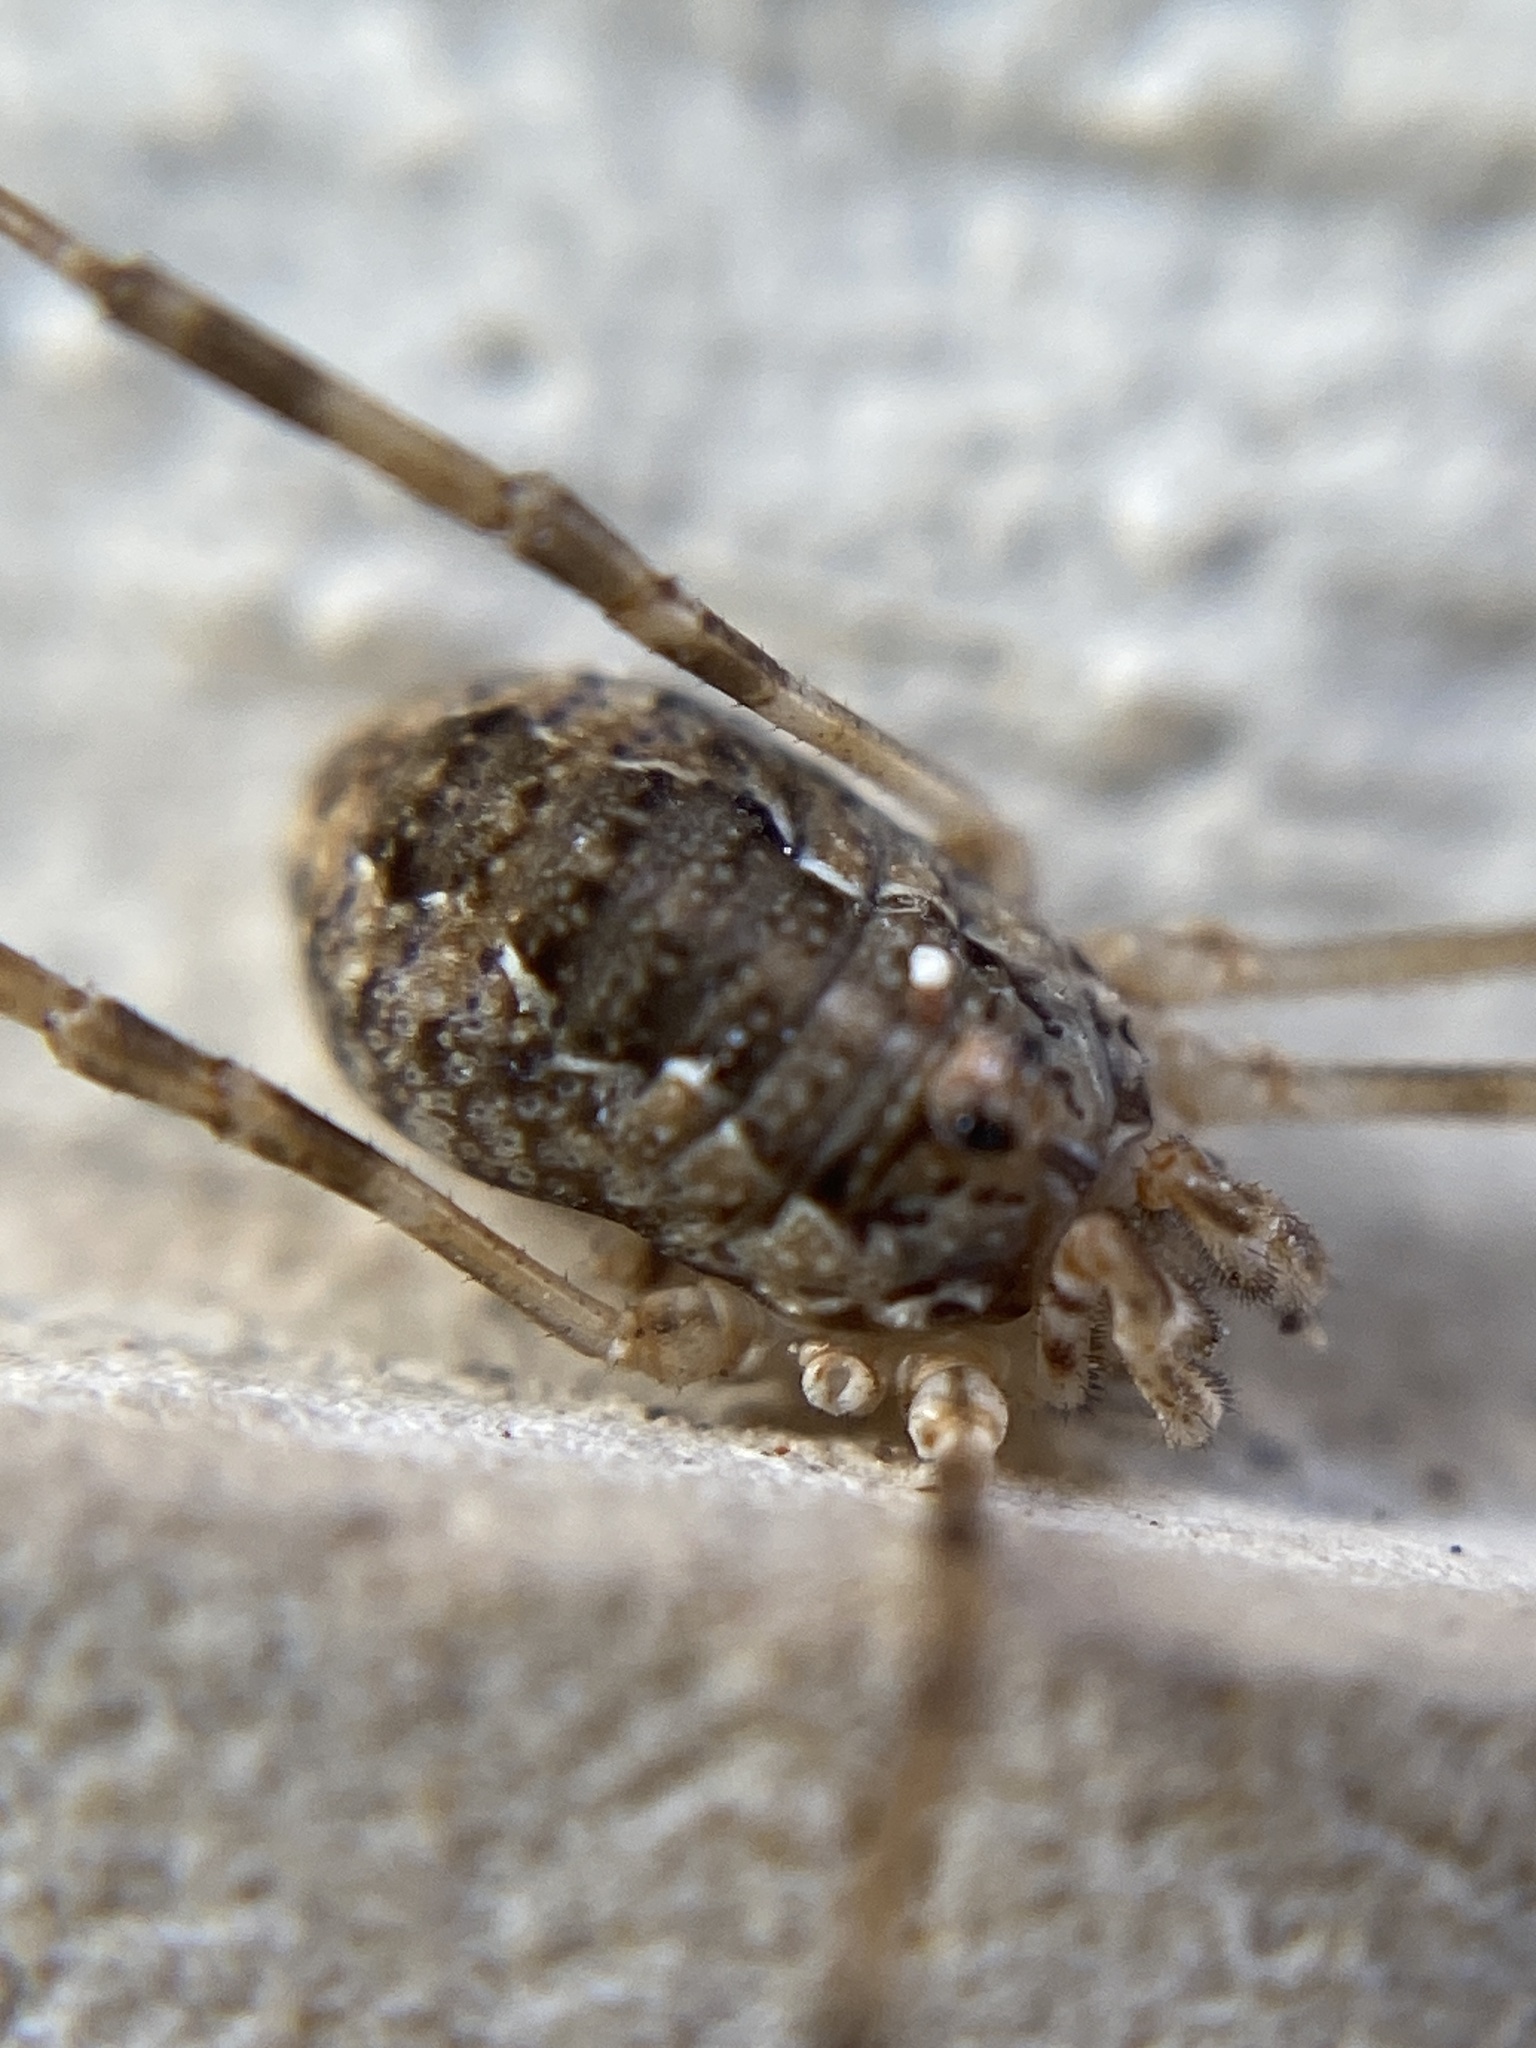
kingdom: Animalia
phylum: Arthropoda
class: Arachnida
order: Opiliones
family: Phalangiidae
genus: Phalangium
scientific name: Phalangium targionii
